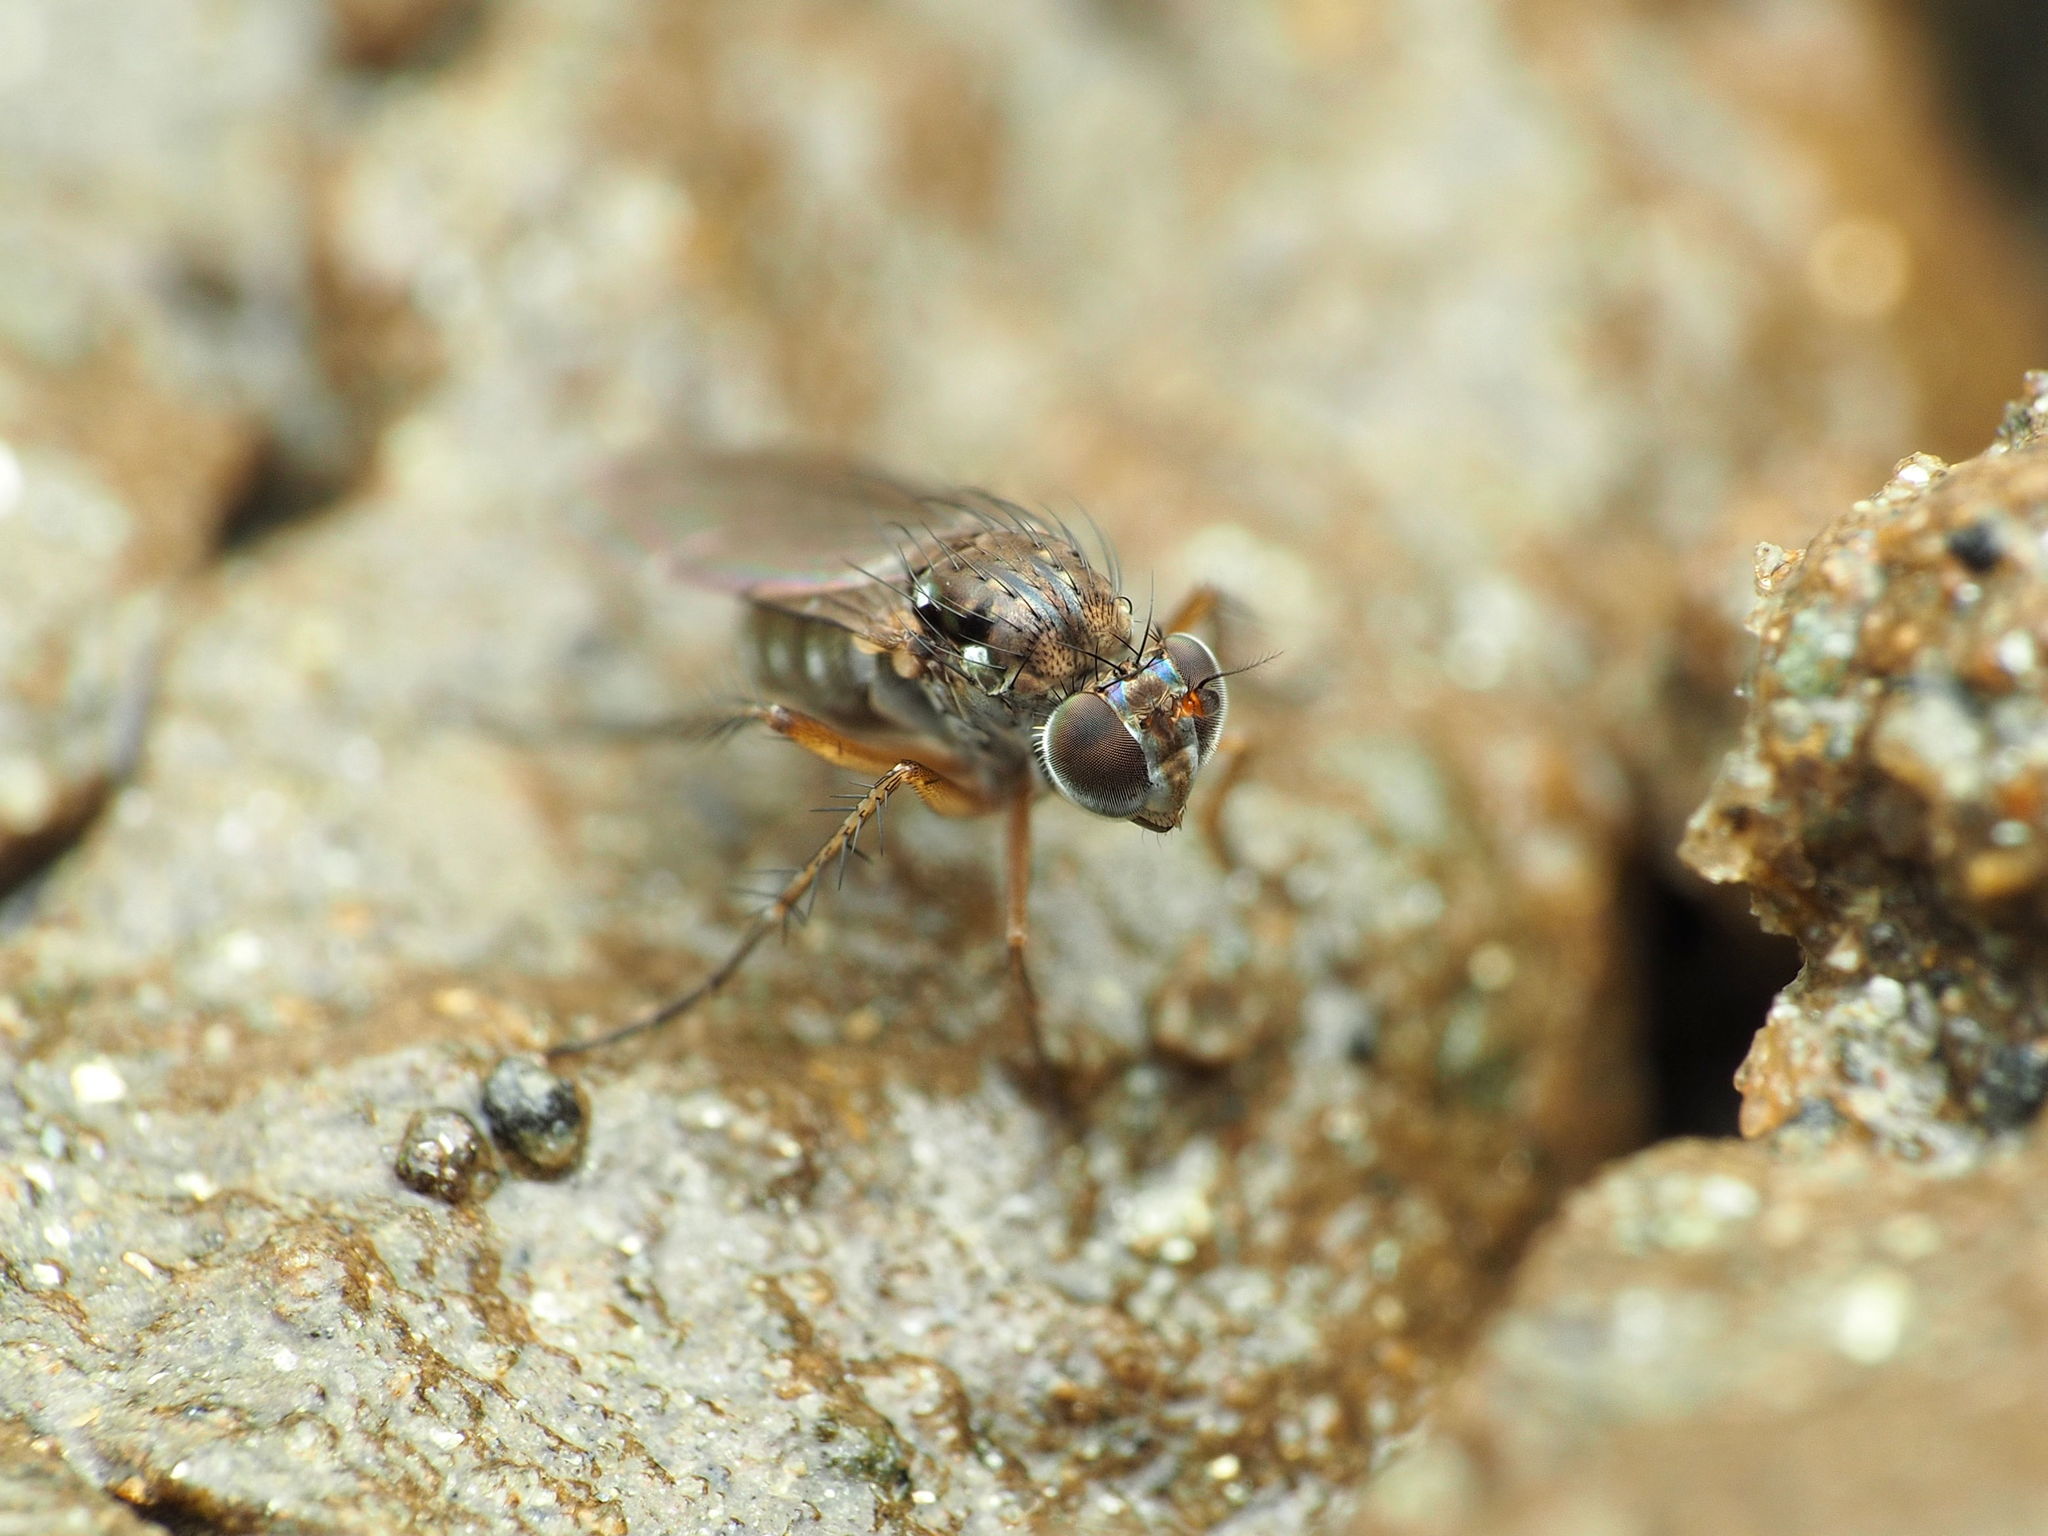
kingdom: Animalia
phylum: Arthropoda
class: Insecta
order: Diptera
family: Dolichopodidae
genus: Pelastoneurus
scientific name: Pelastoneurus vagans
